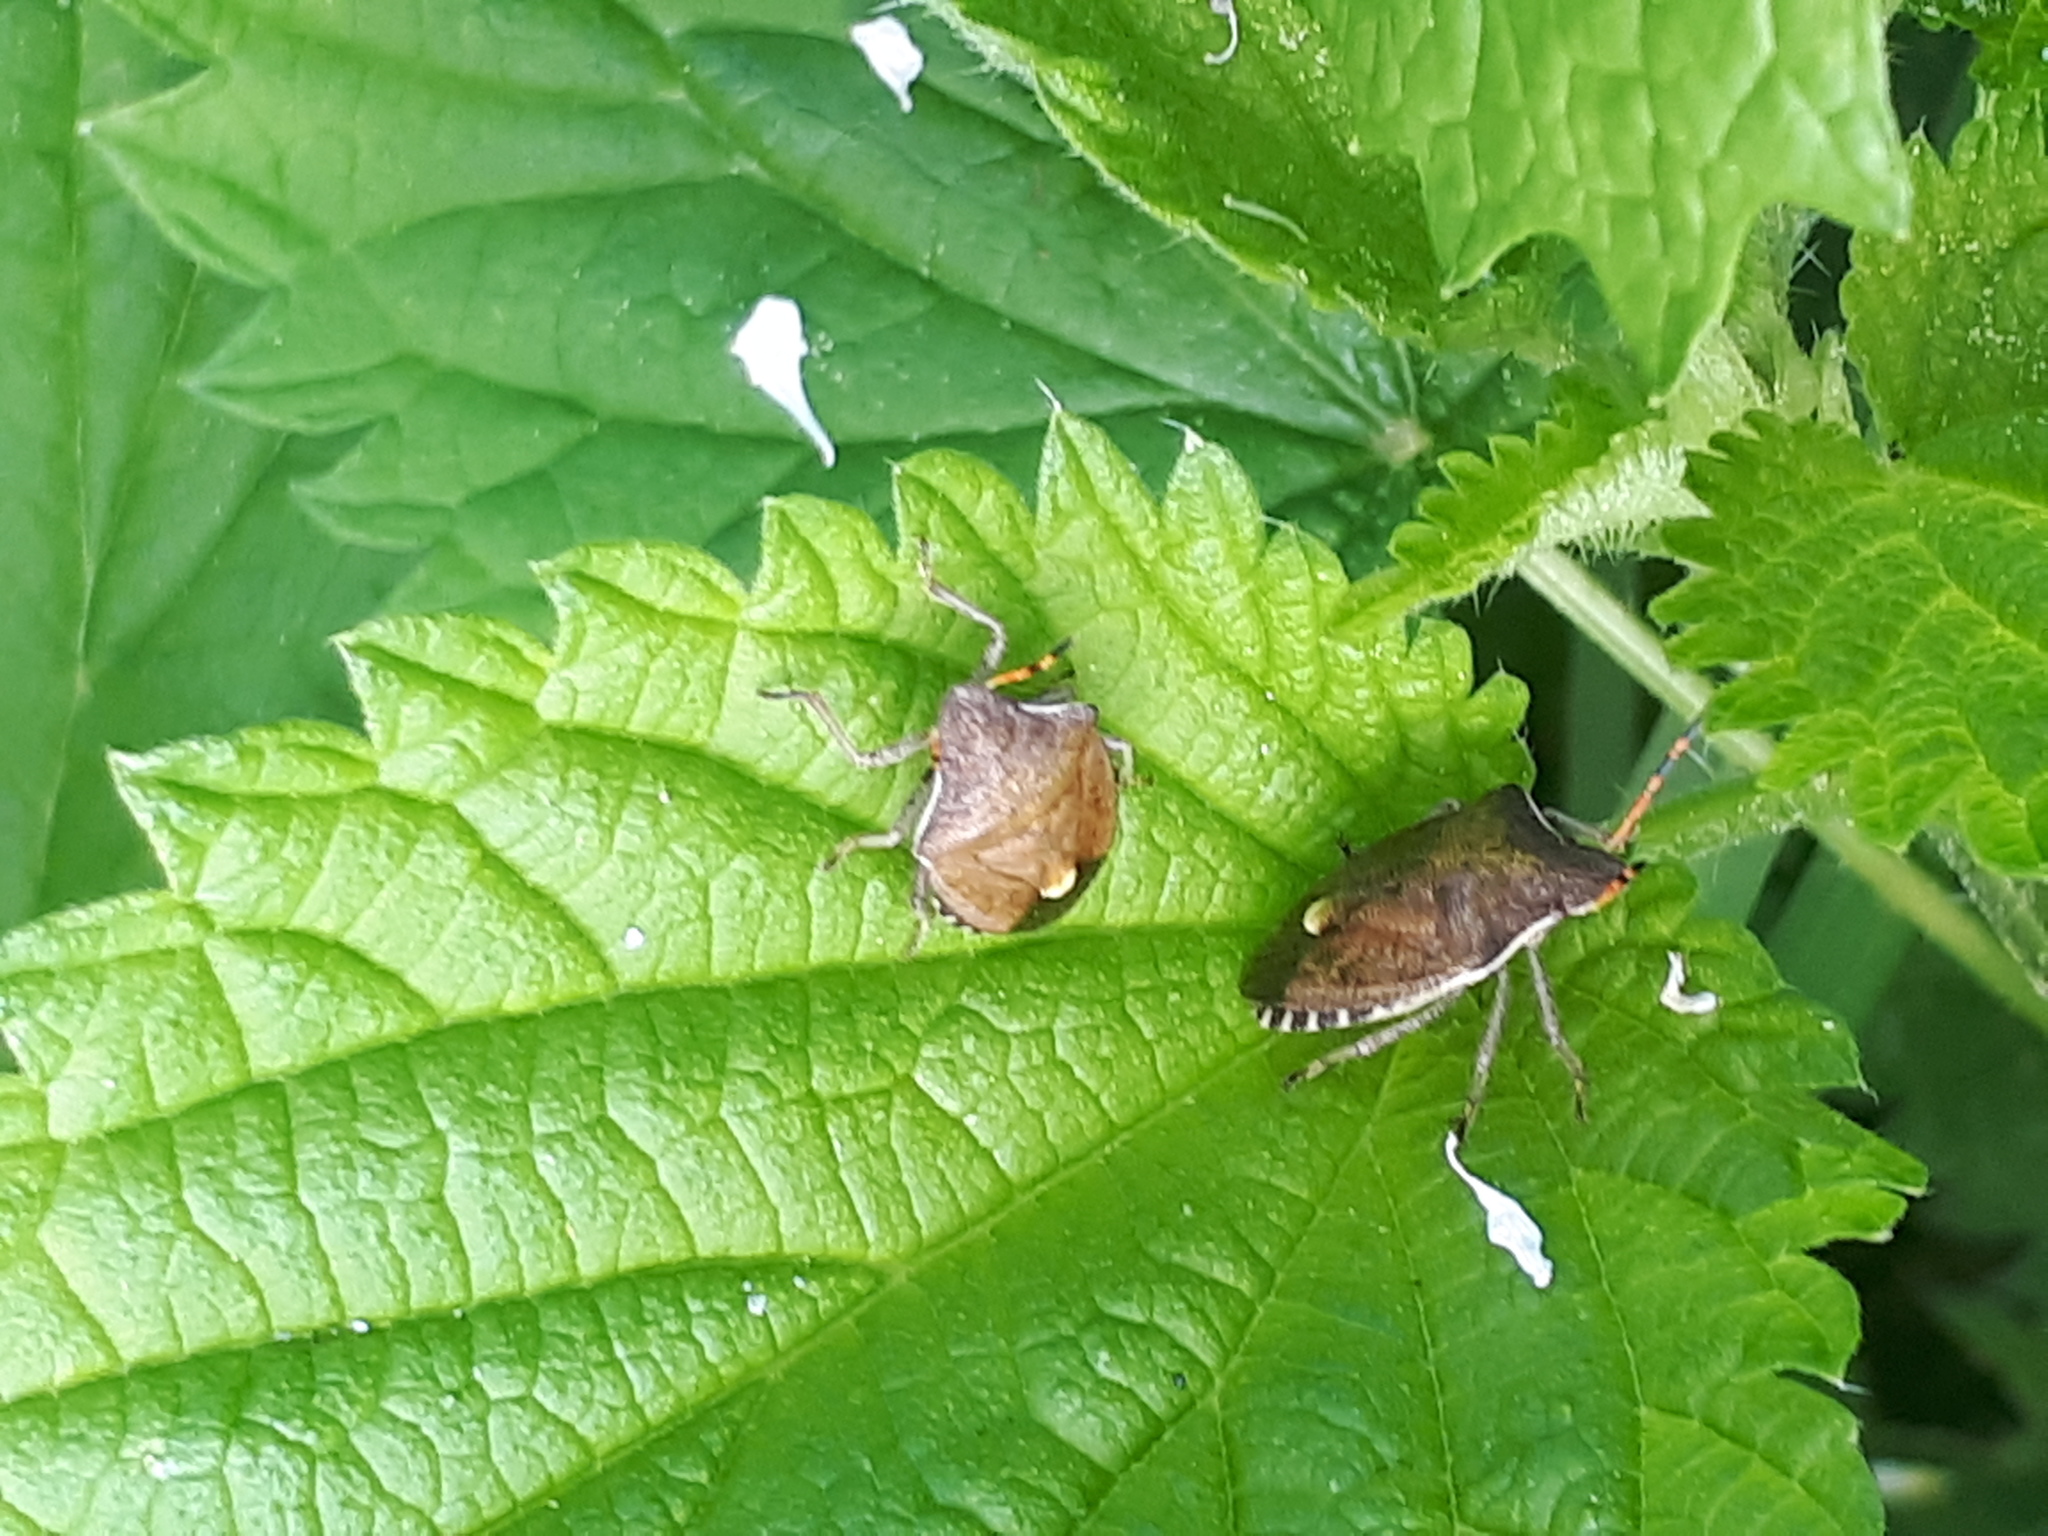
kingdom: Animalia
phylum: Arthropoda
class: Insecta
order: Hemiptera
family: Pentatomidae
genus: Holcostethus
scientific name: Holcostethus strictus
